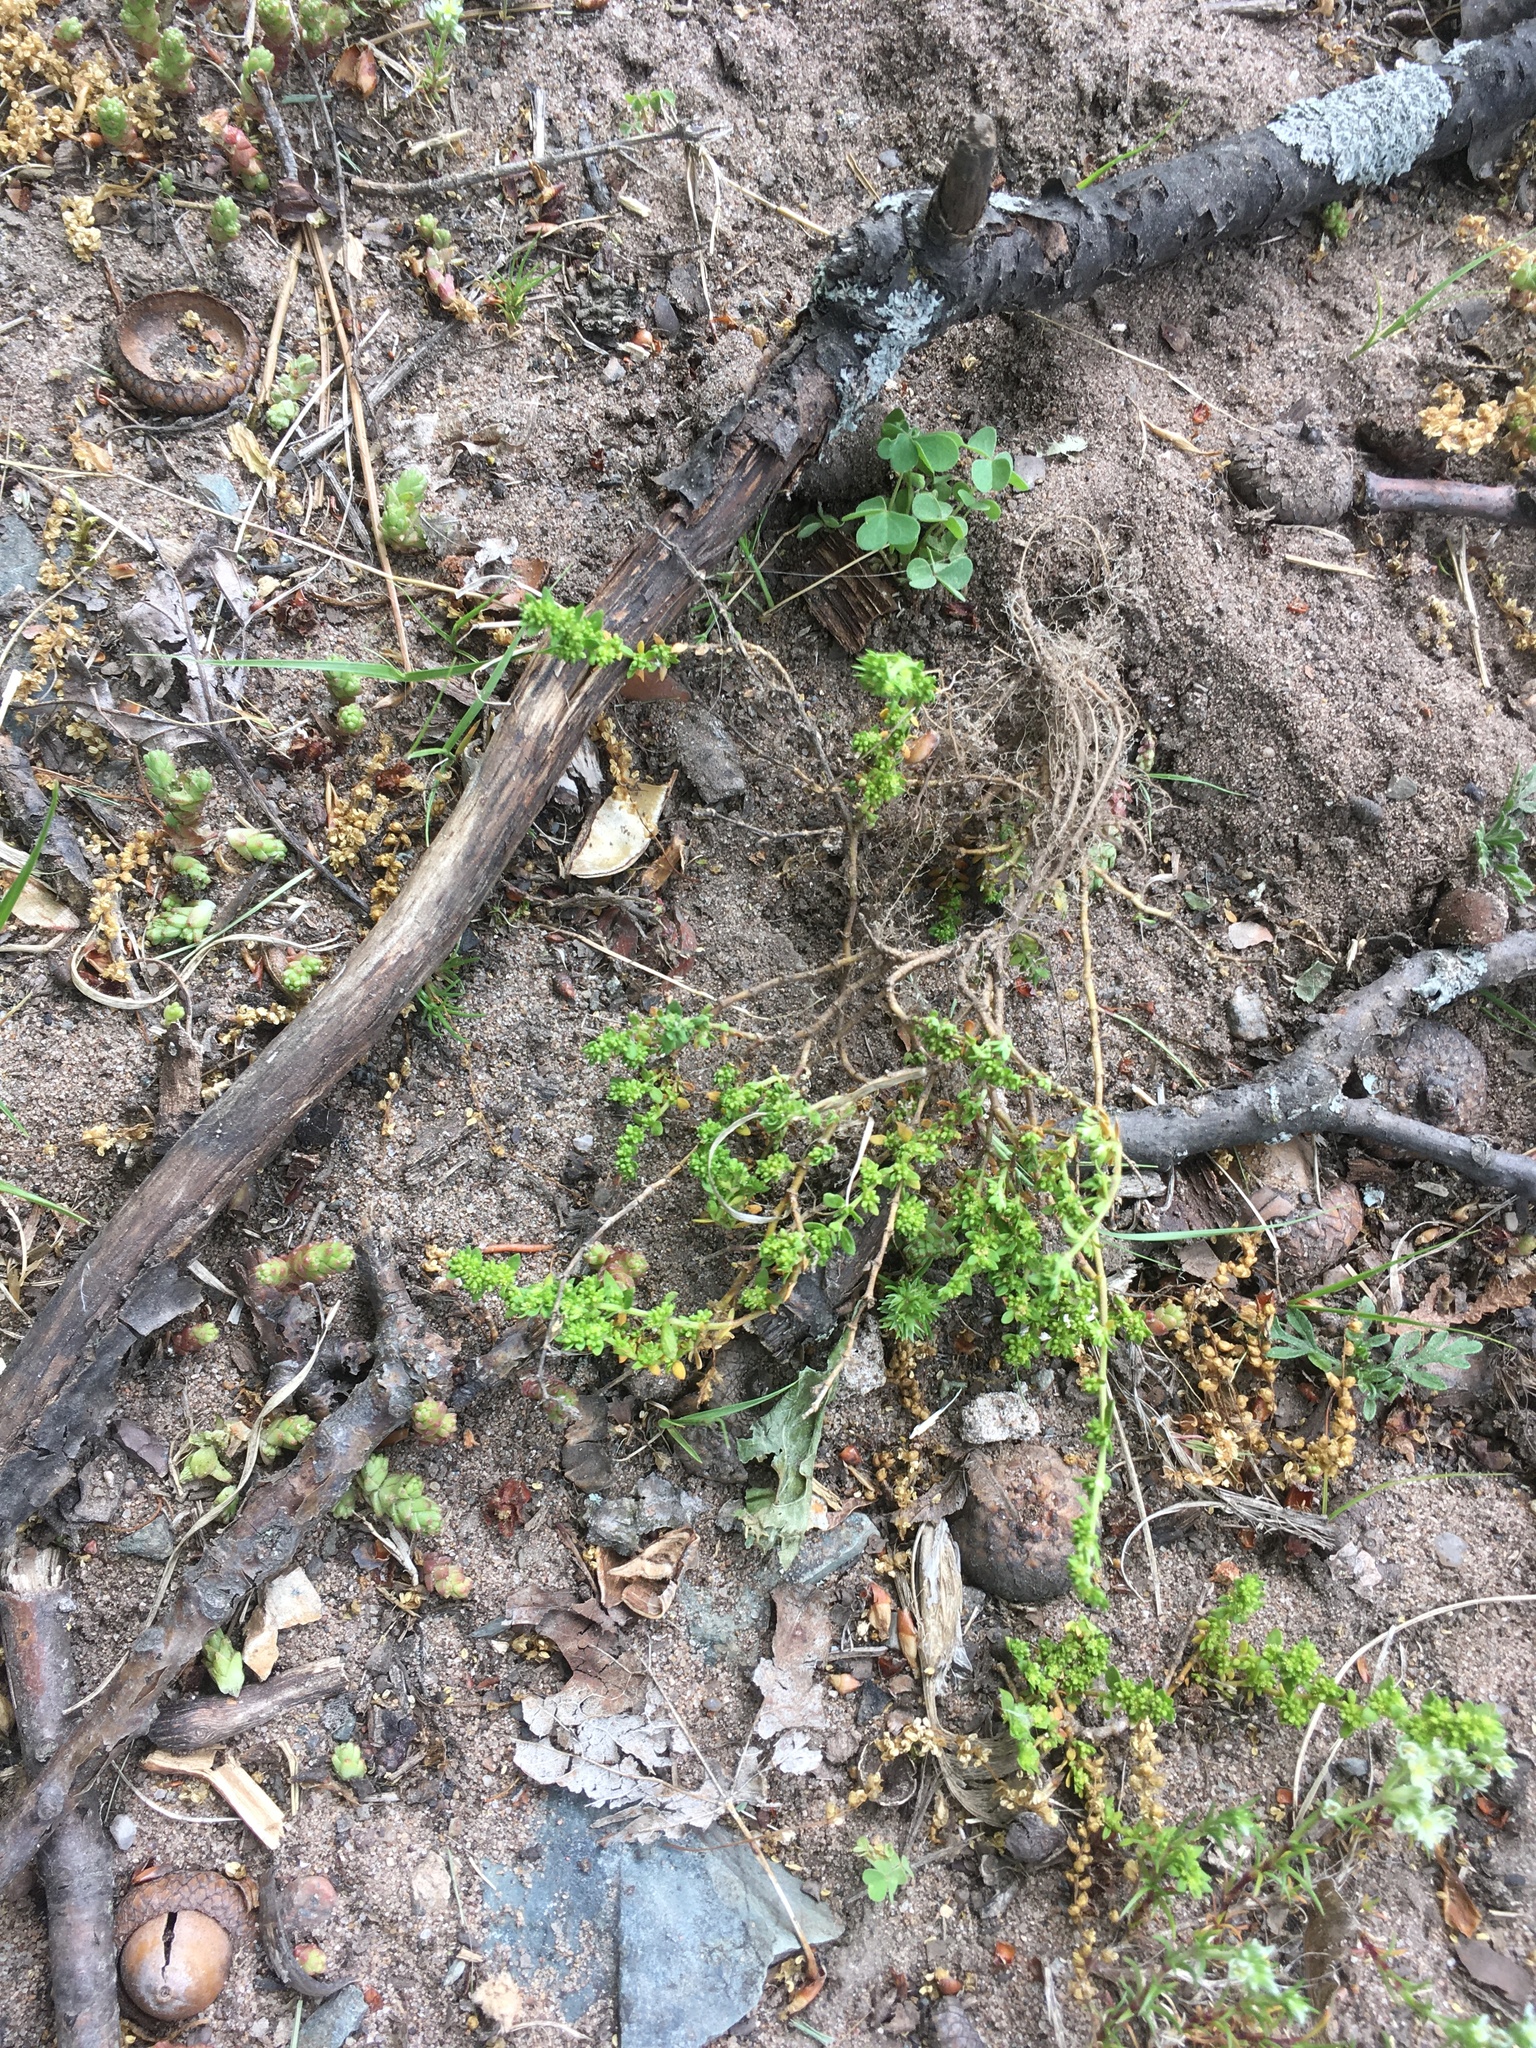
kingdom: Plantae
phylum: Tracheophyta
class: Magnoliopsida
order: Caryophyllales
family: Caryophyllaceae
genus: Herniaria
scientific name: Herniaria glabra
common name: Smooth rupturewort
